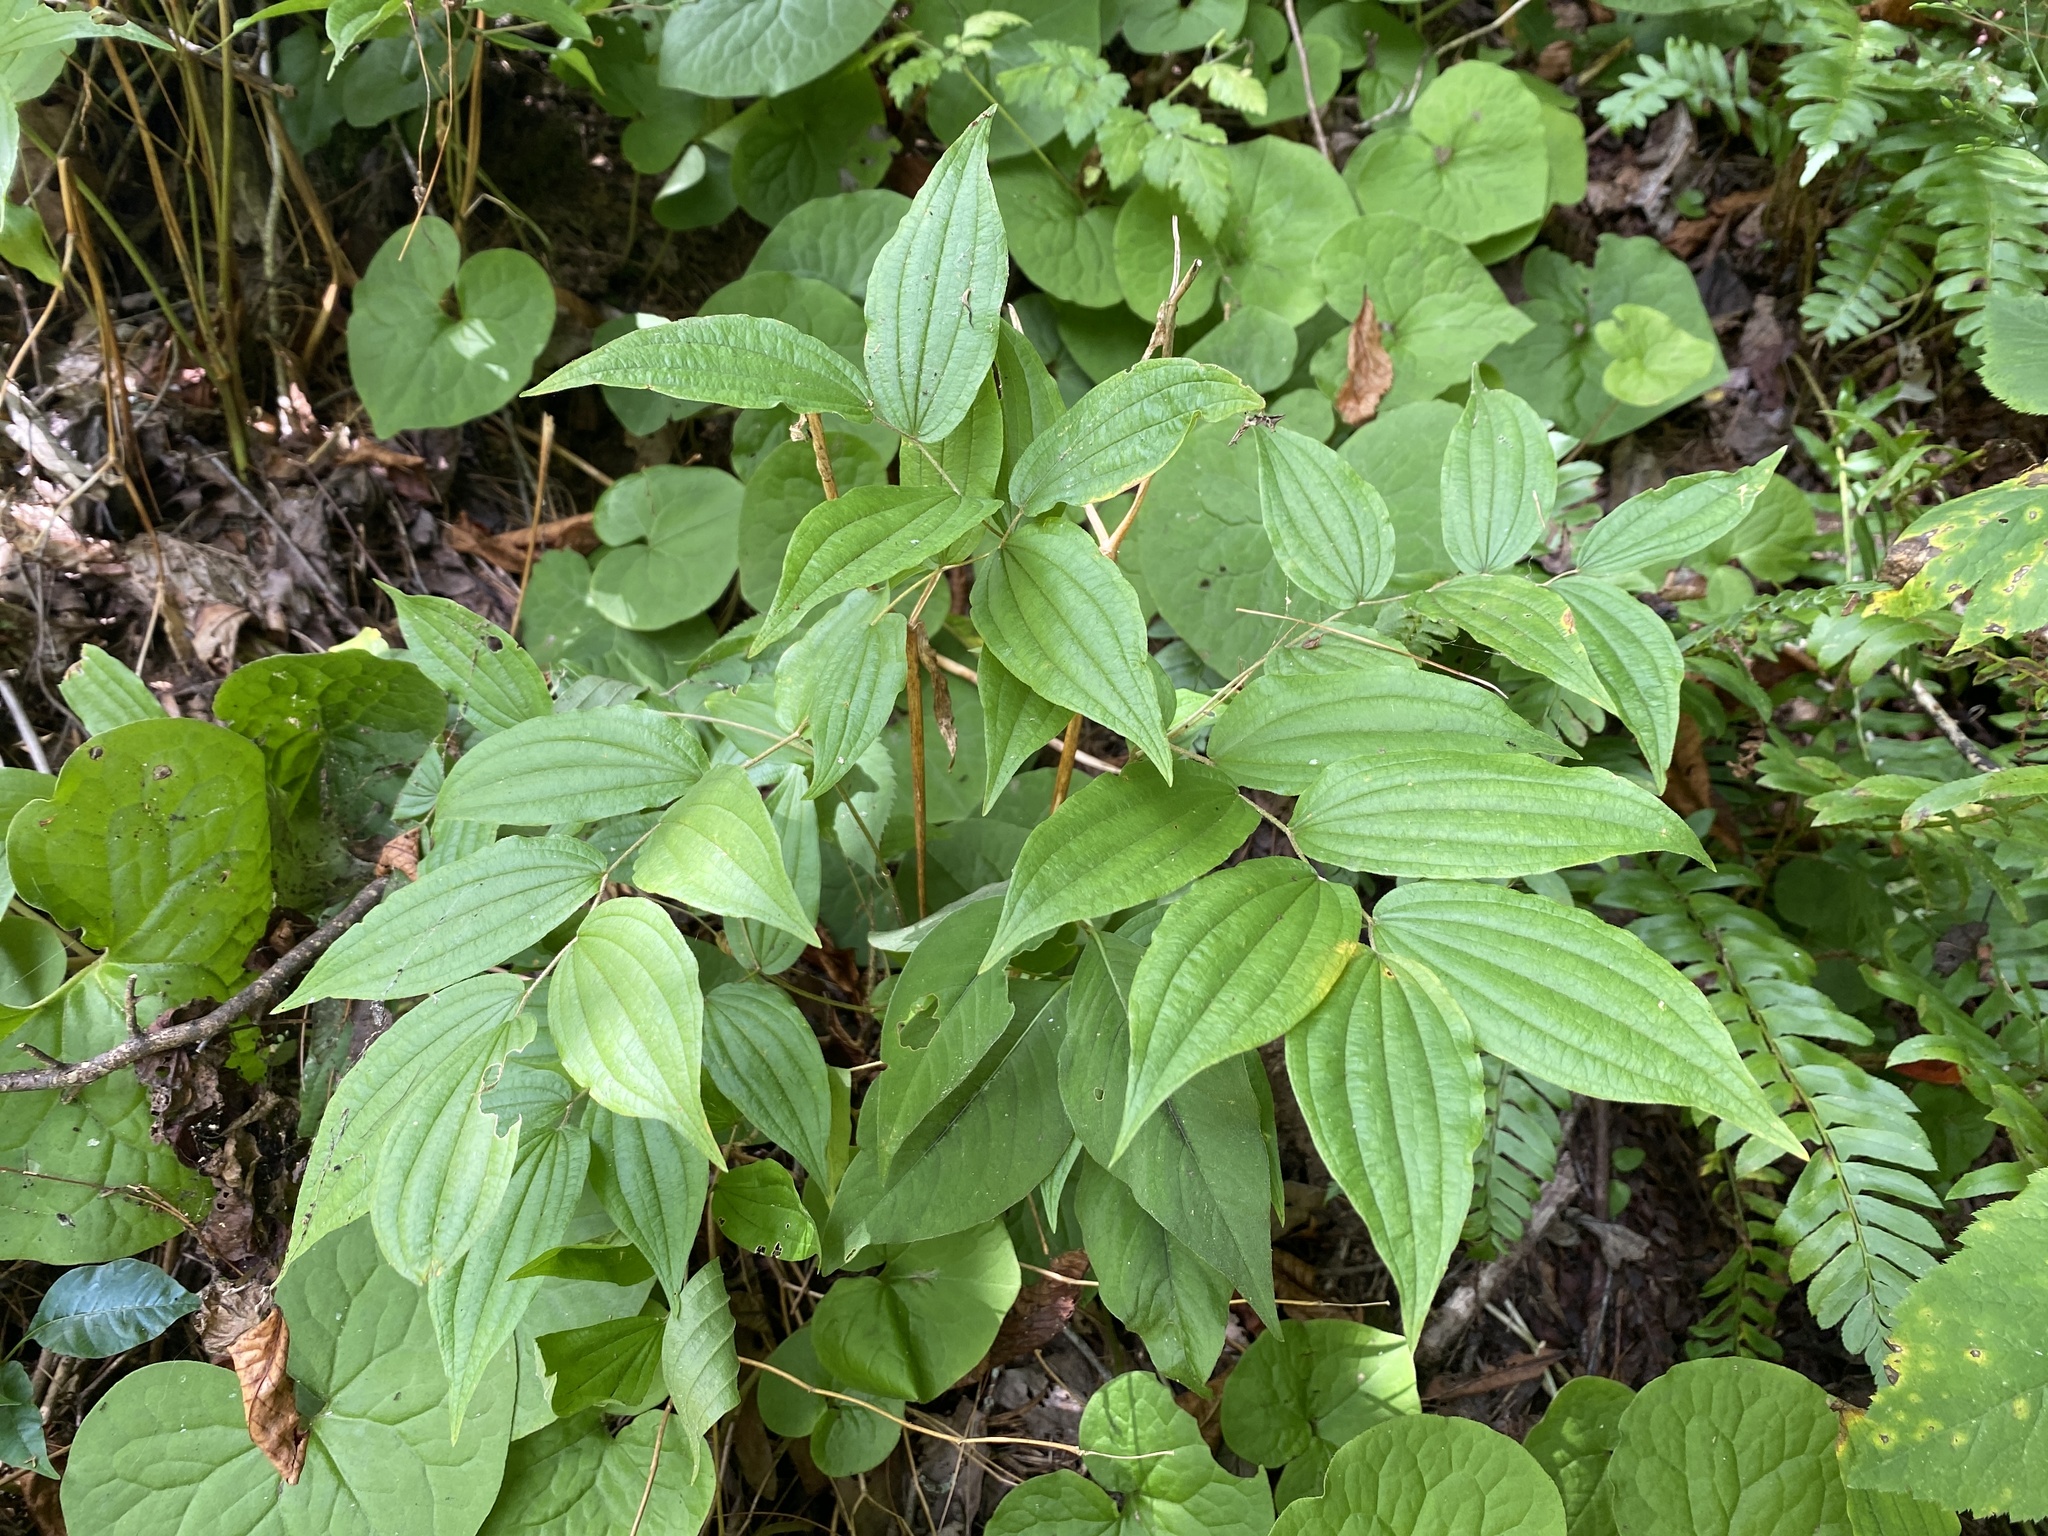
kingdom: Plantae
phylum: Tracheophyta
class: Liliopsida
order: Liliales
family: Liliaceae
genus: Prosartes
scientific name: Prosartes lanuginosa
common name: Hairy mandarin
